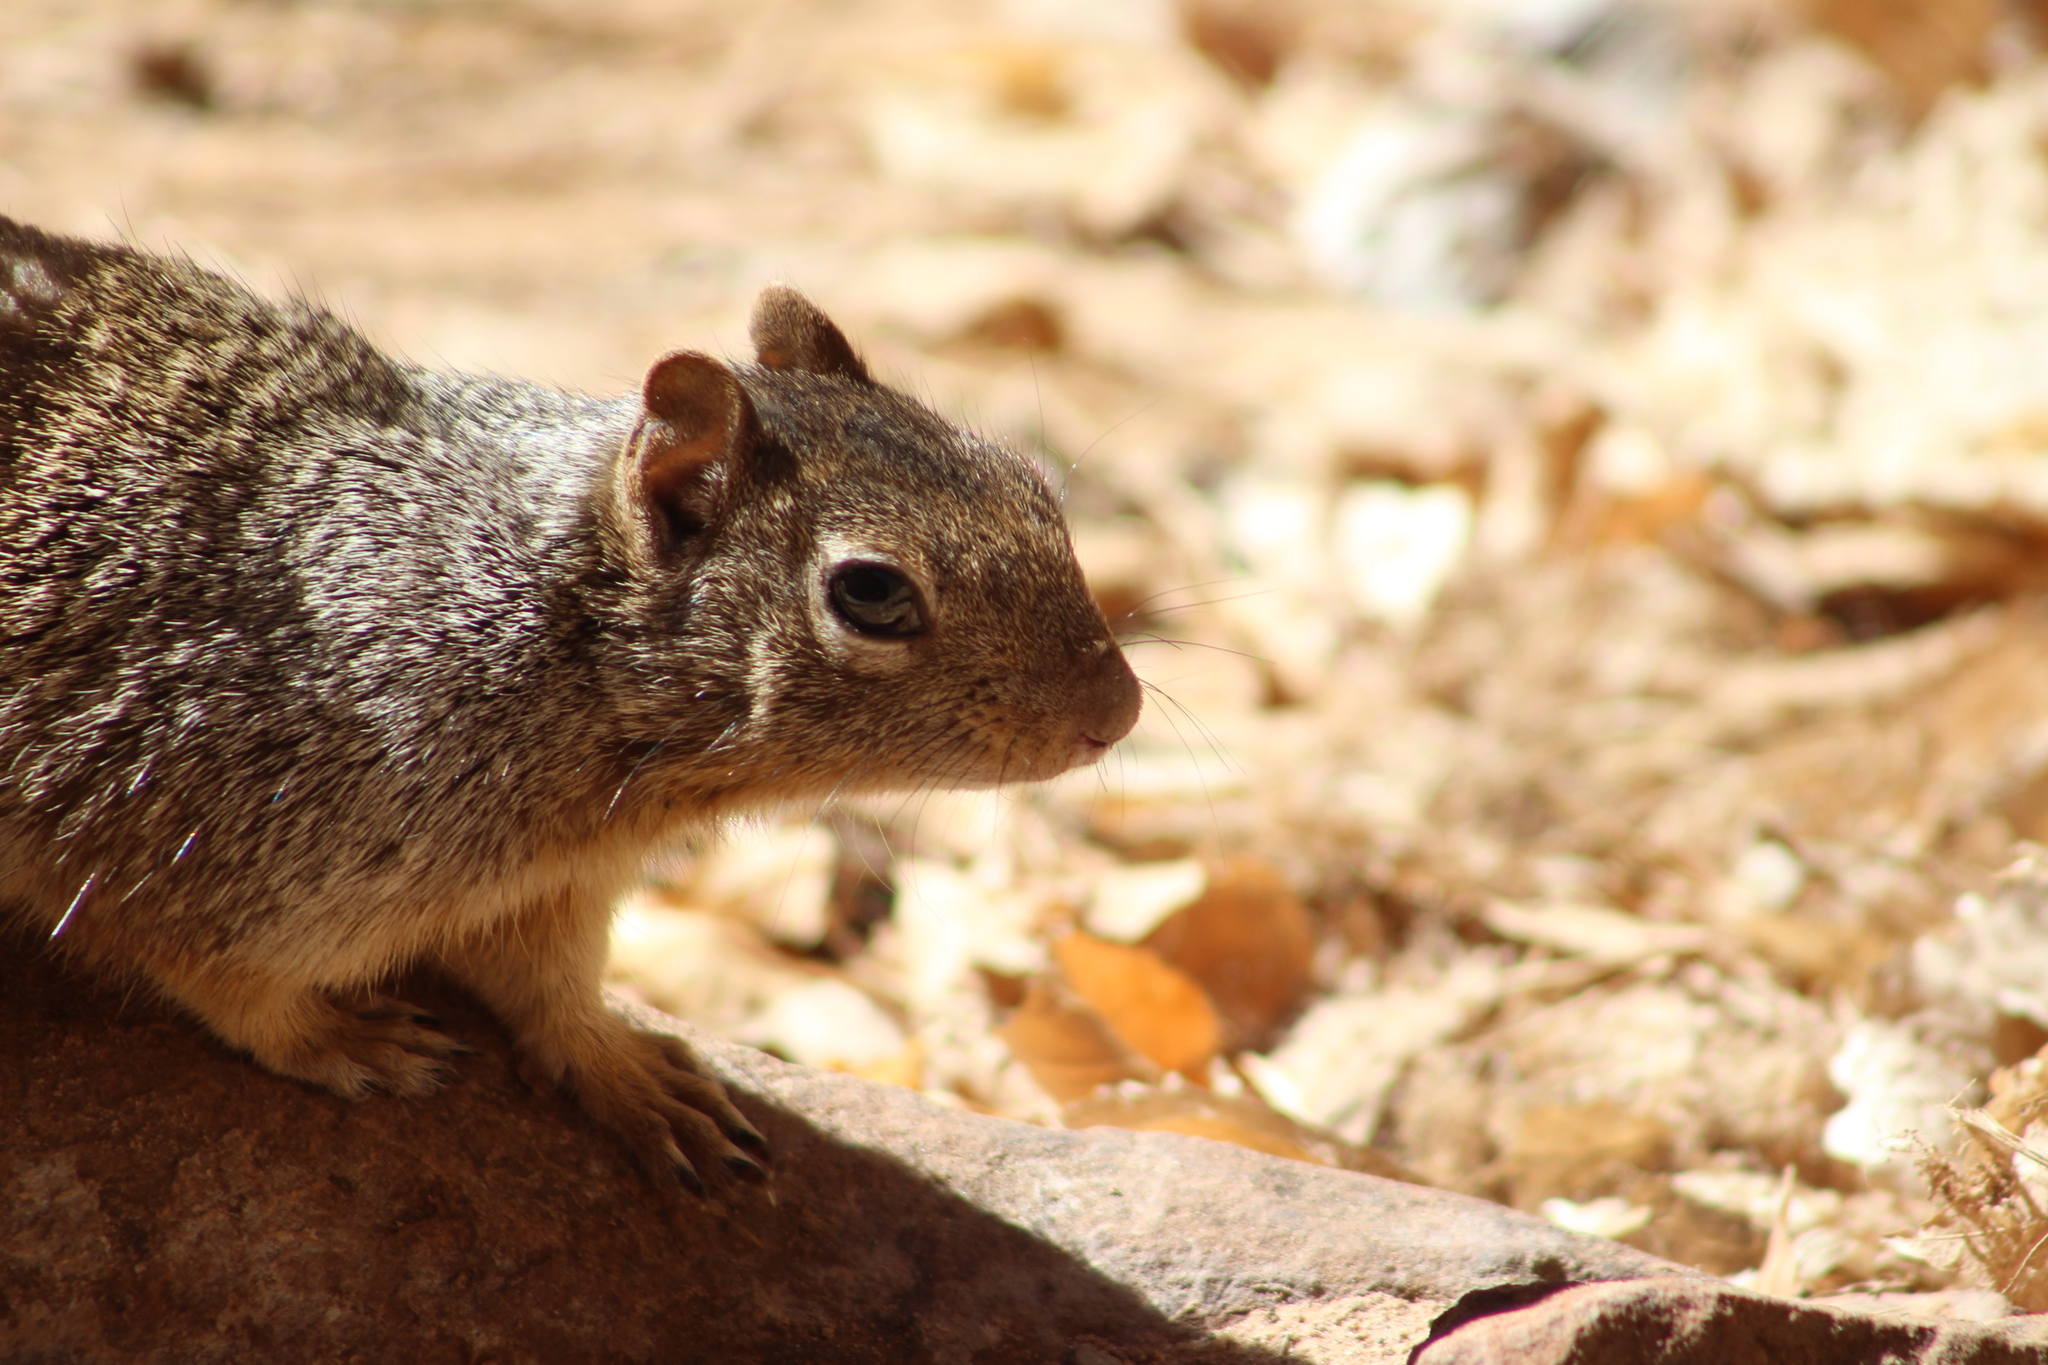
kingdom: Animalia
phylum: Chordata
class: Mammalia
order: Rodentia
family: Sciuridae
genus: Otospermophilus
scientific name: Otospermophilus variegatus
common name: Rock squirrel
